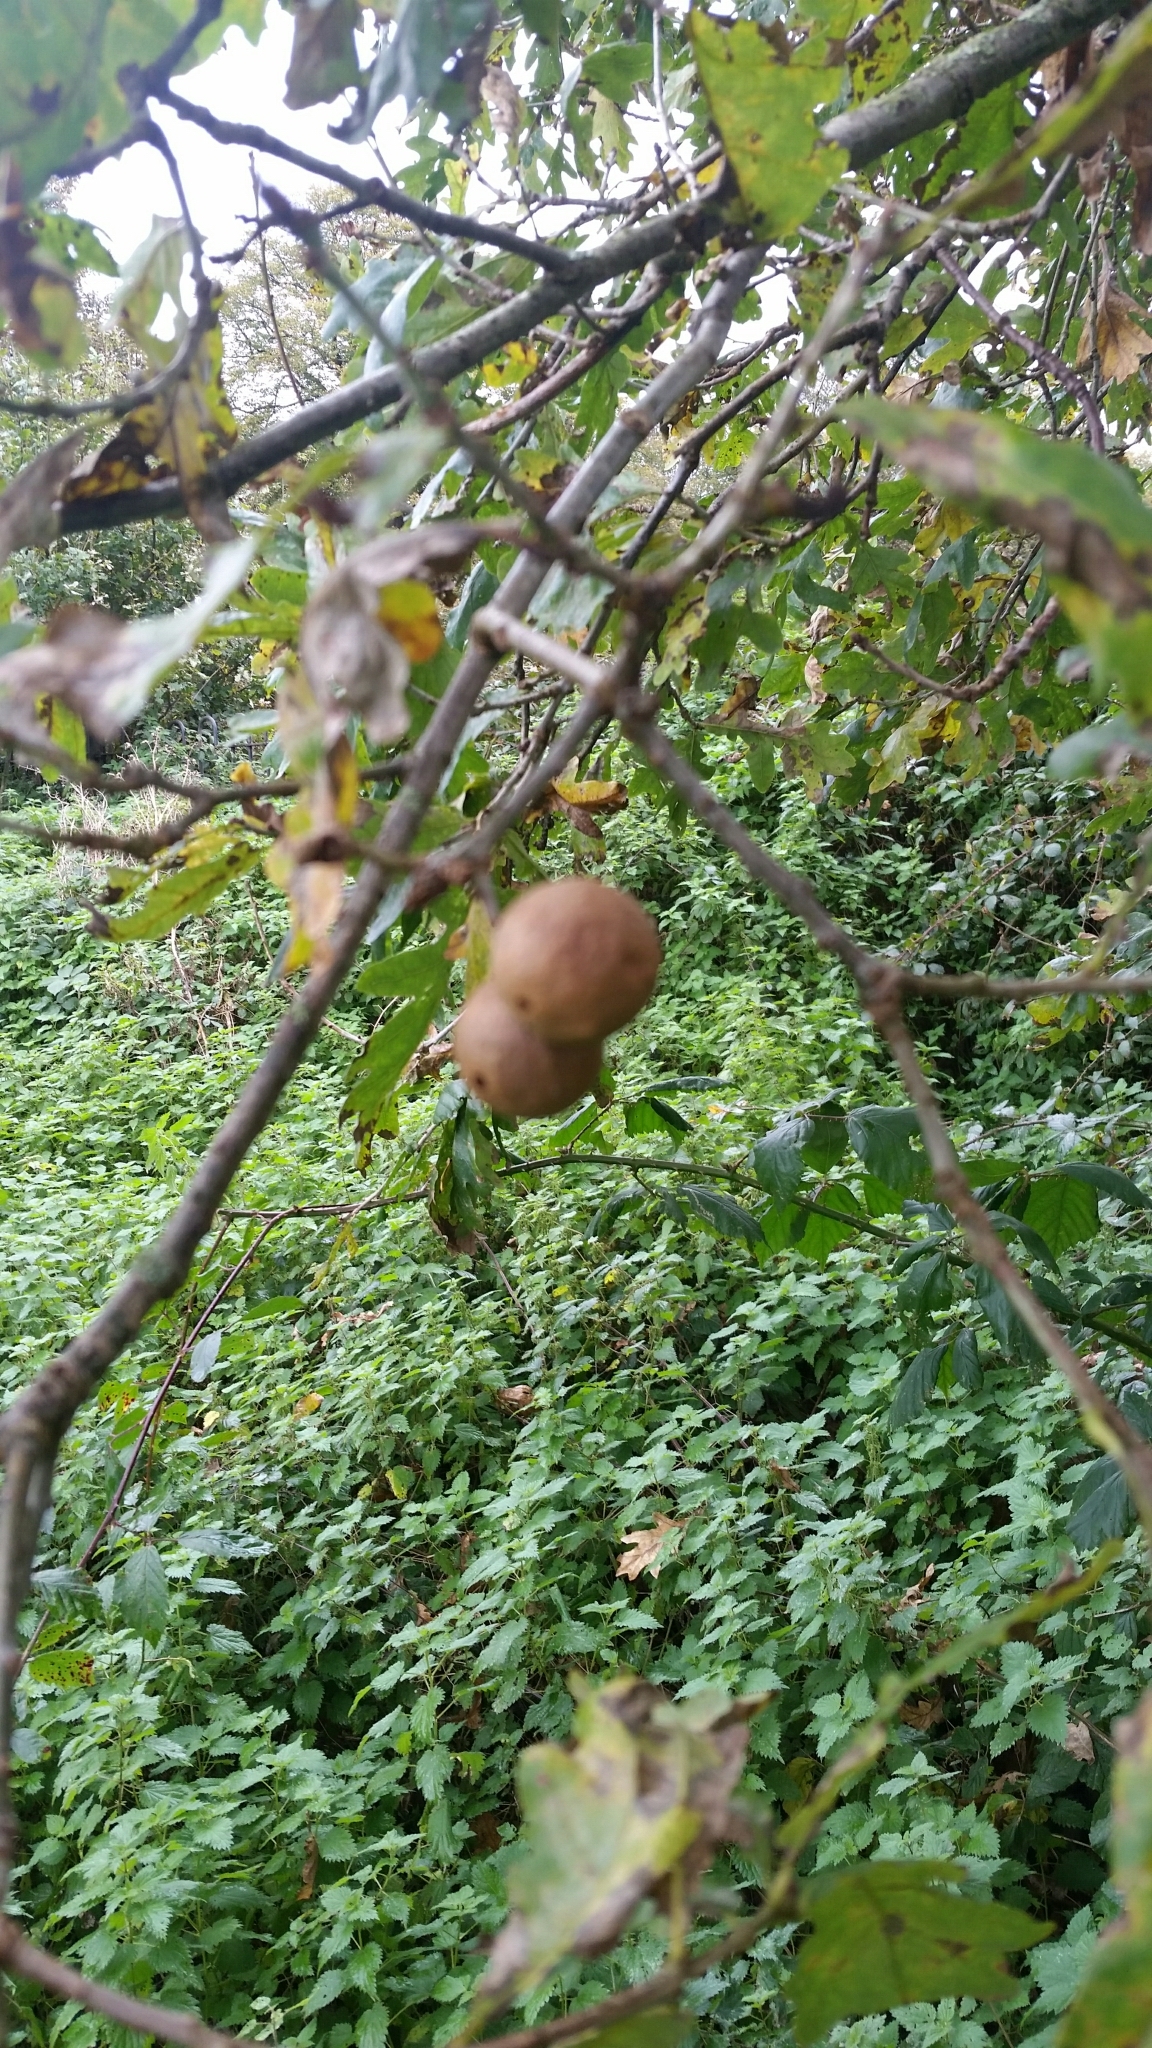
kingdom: Animalia
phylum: Arthropoda
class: Insecta
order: Hymenoptera
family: Cynipidae
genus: Andricus
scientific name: Andricus kollari
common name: Marble gall
